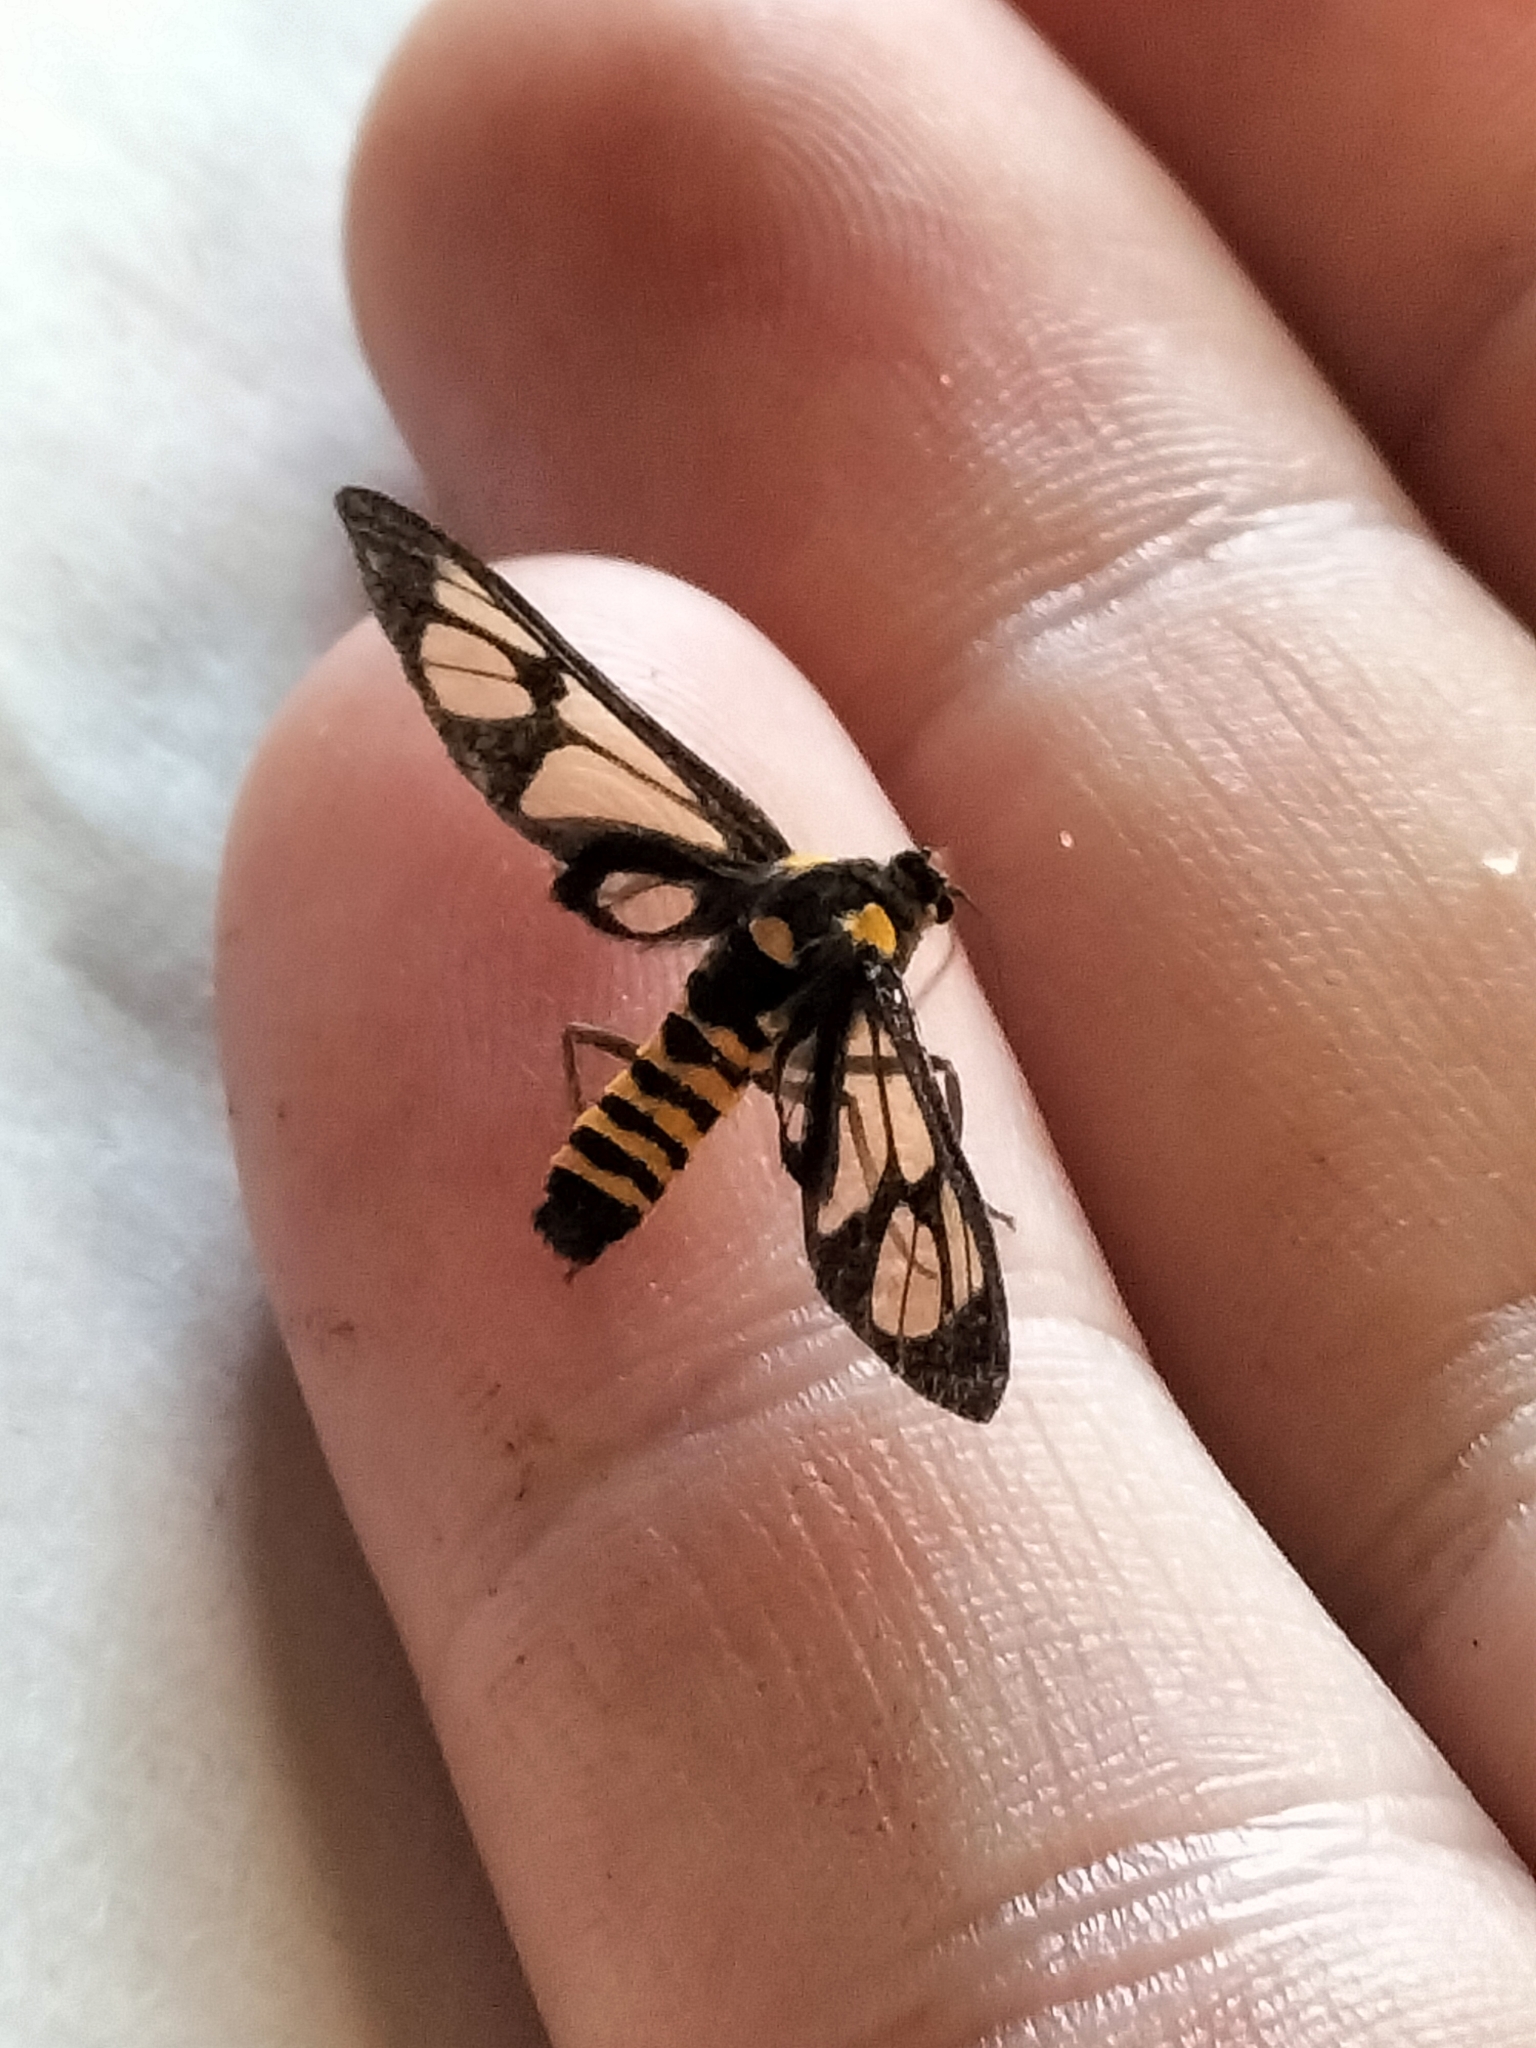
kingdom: Animalia
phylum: Arthropoda
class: Insecta
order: Lepidoptera
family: Erebidae
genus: Ceryx
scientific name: Ceryx sphenodes
